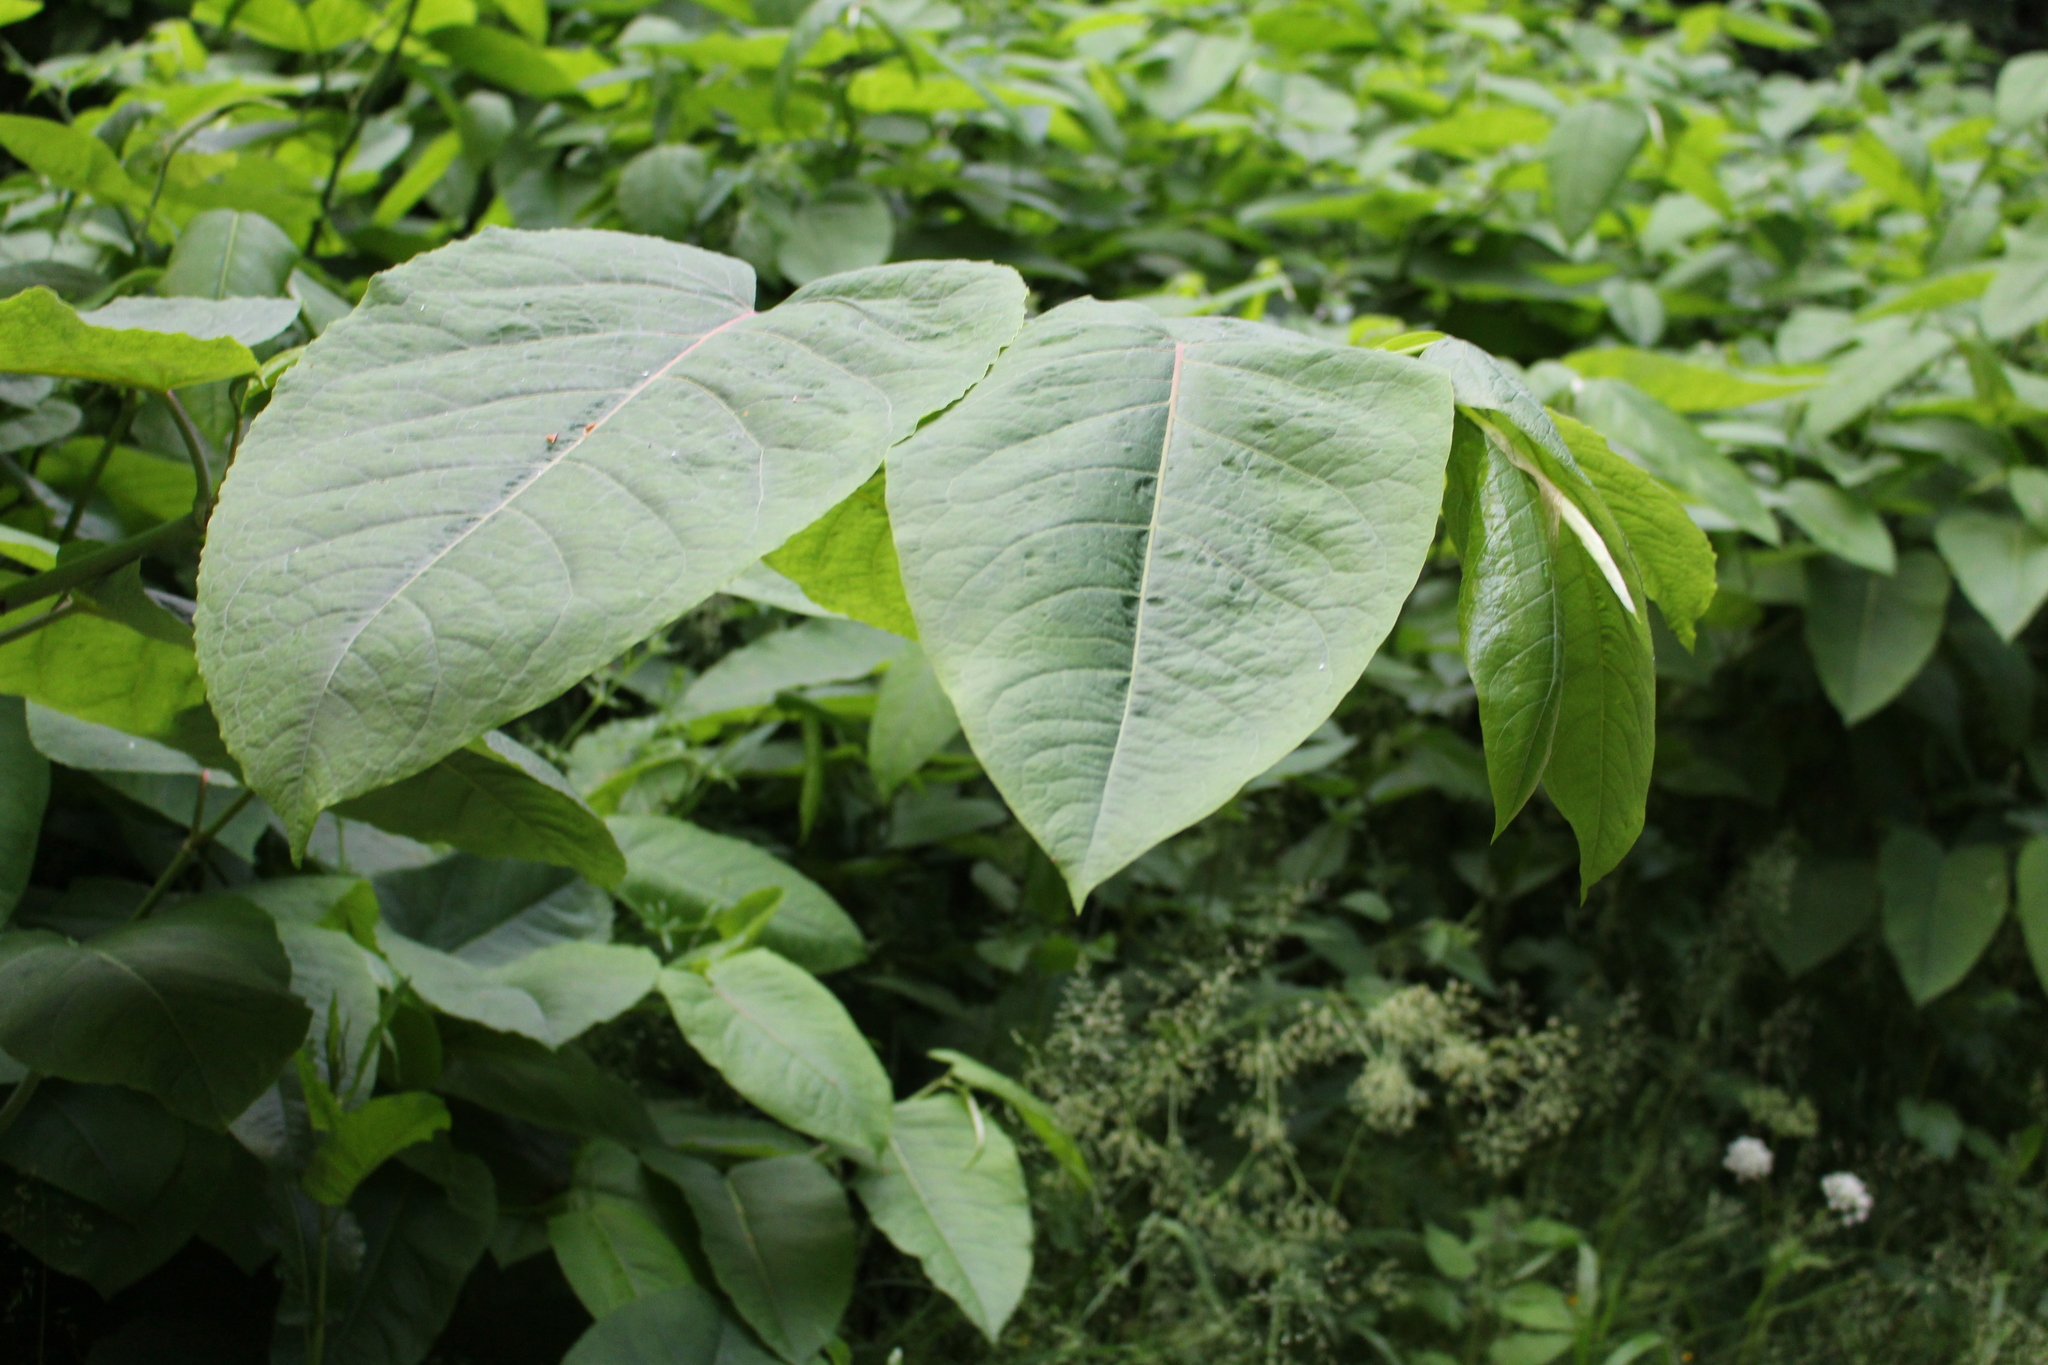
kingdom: Plantae
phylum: Tracheophyta
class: Magnoliopsida
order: Caryophyllales
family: Polygonaceae
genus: Reynoutria
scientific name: Reynoutria sachalinensis
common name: Giant knotweed
